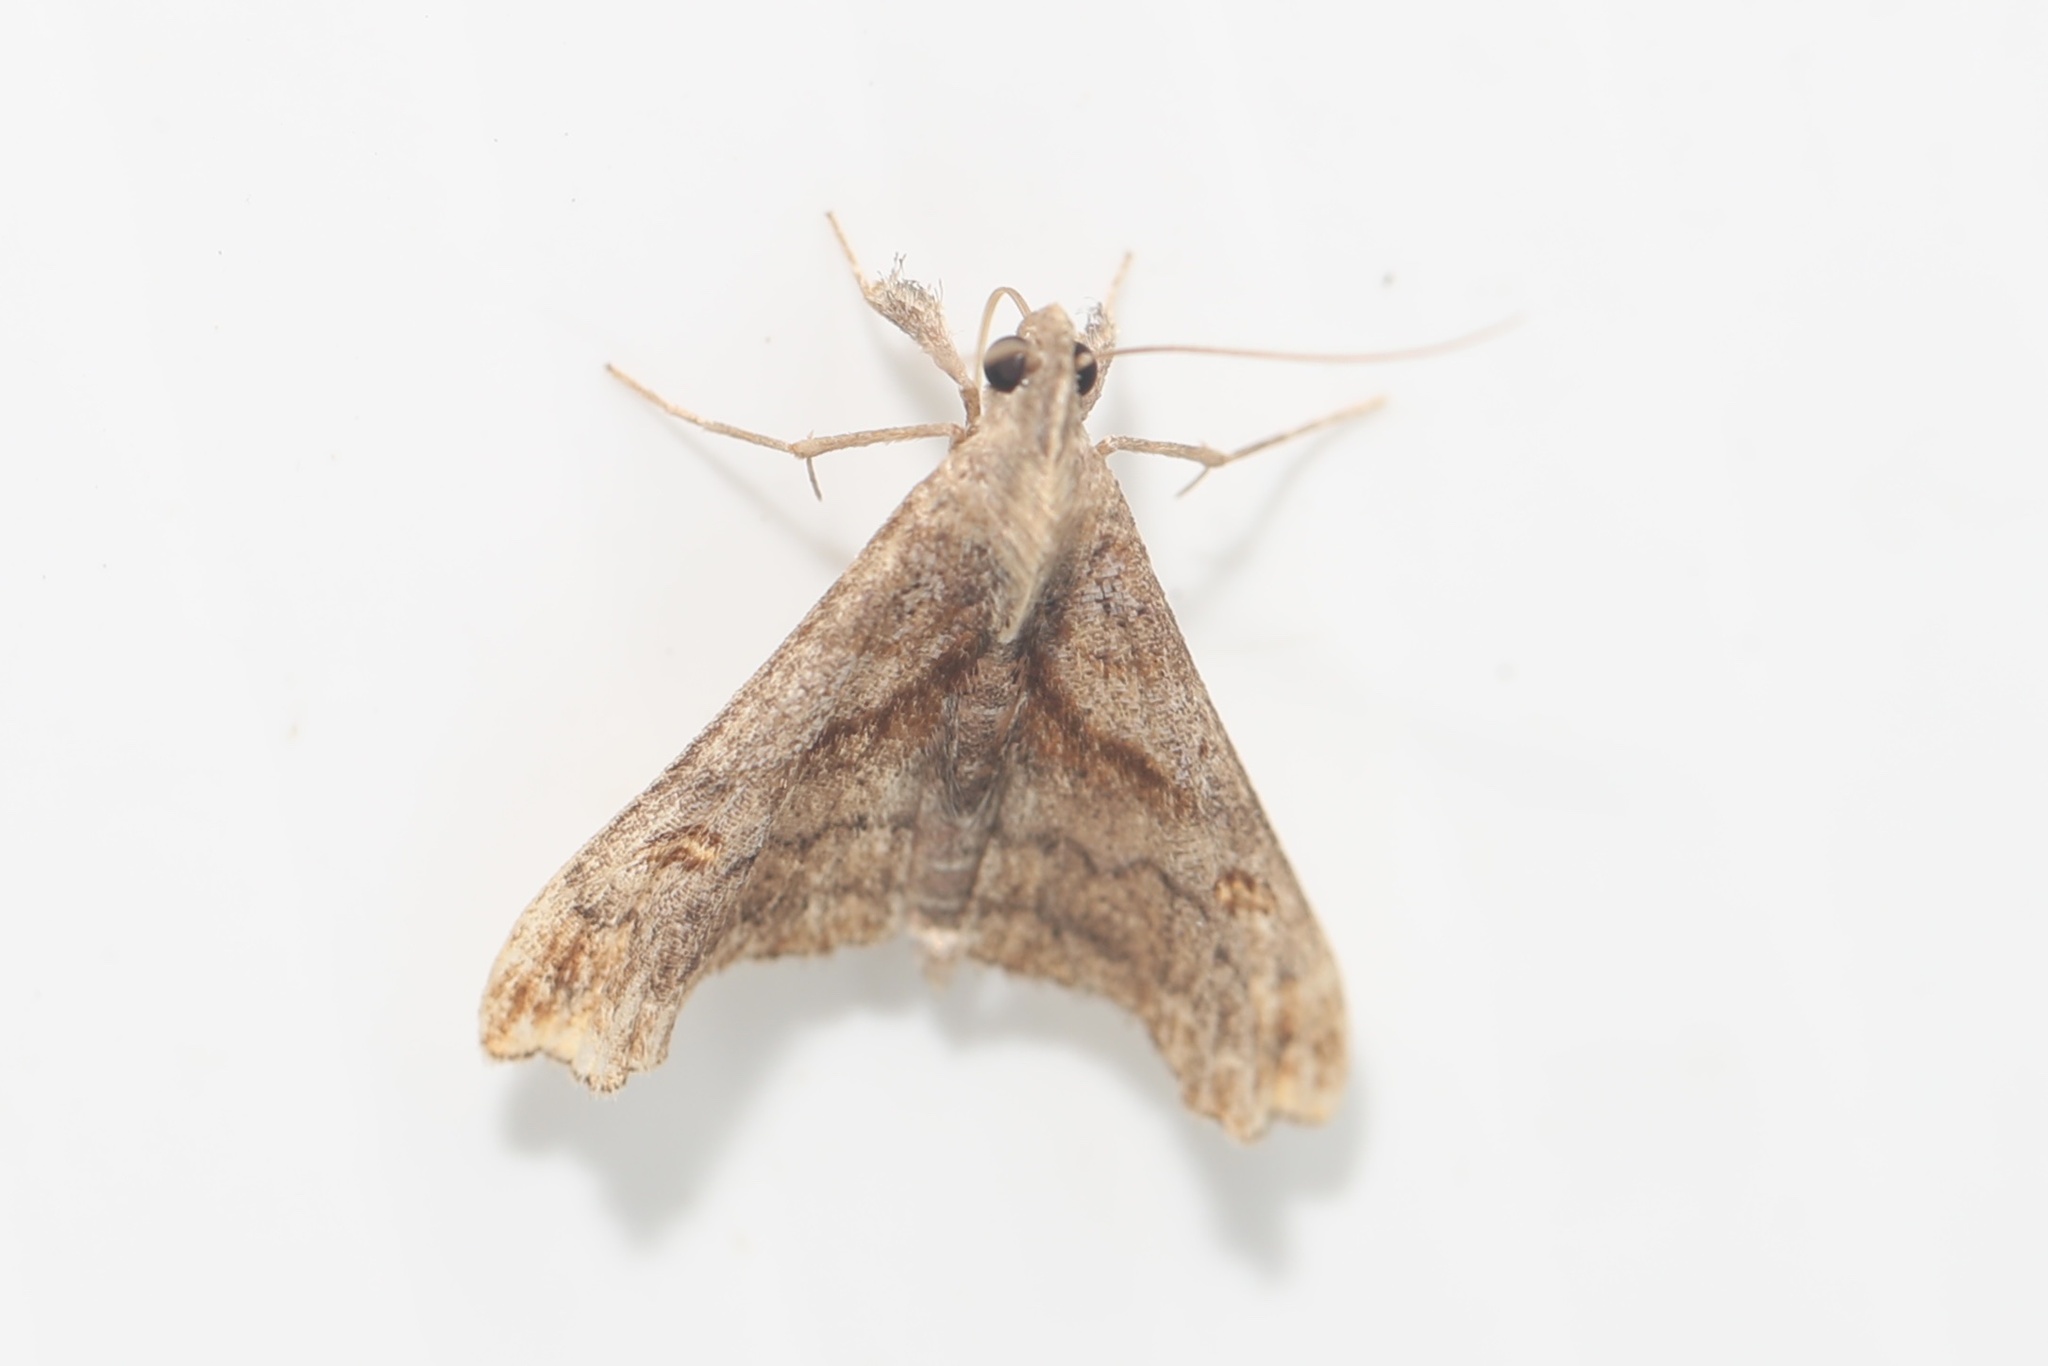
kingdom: Animalia
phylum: Arthropoda
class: Insecta
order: Lepidoptera
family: Erebidae
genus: Palthis
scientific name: Palthis angulalis
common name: Dark-spotted palthis moth
